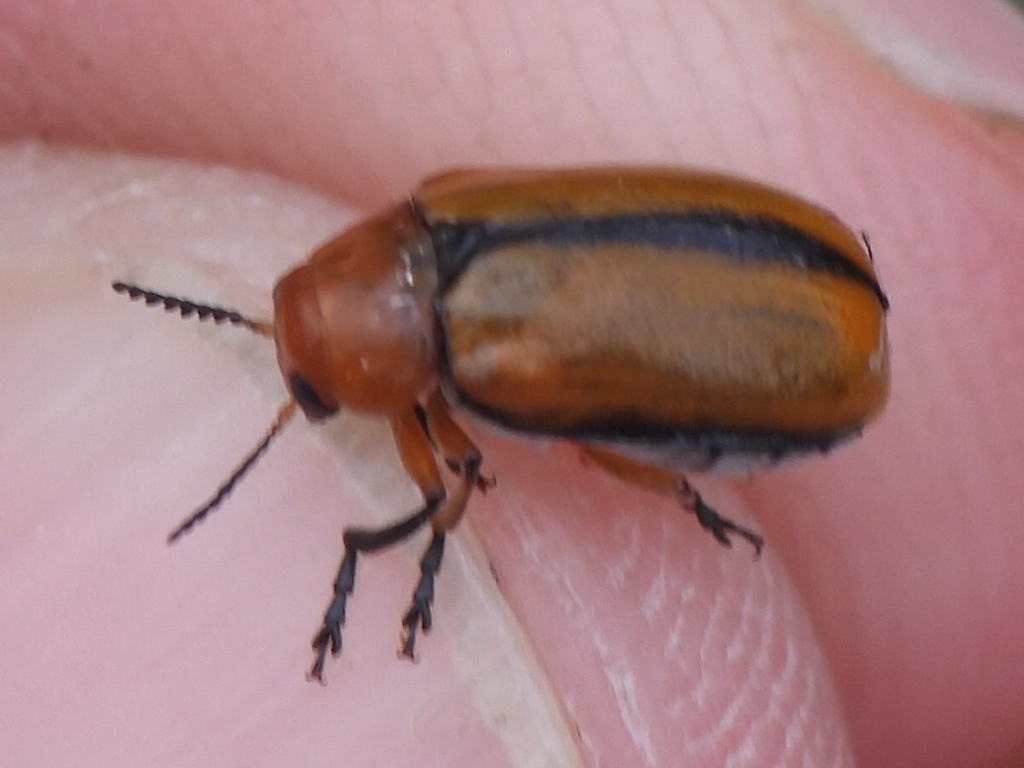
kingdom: Animalia
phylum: Arthropoda
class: Insecta
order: Coleoptera
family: Chrysomelidae
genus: Anomoea
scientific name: Anomoea laticlavia
